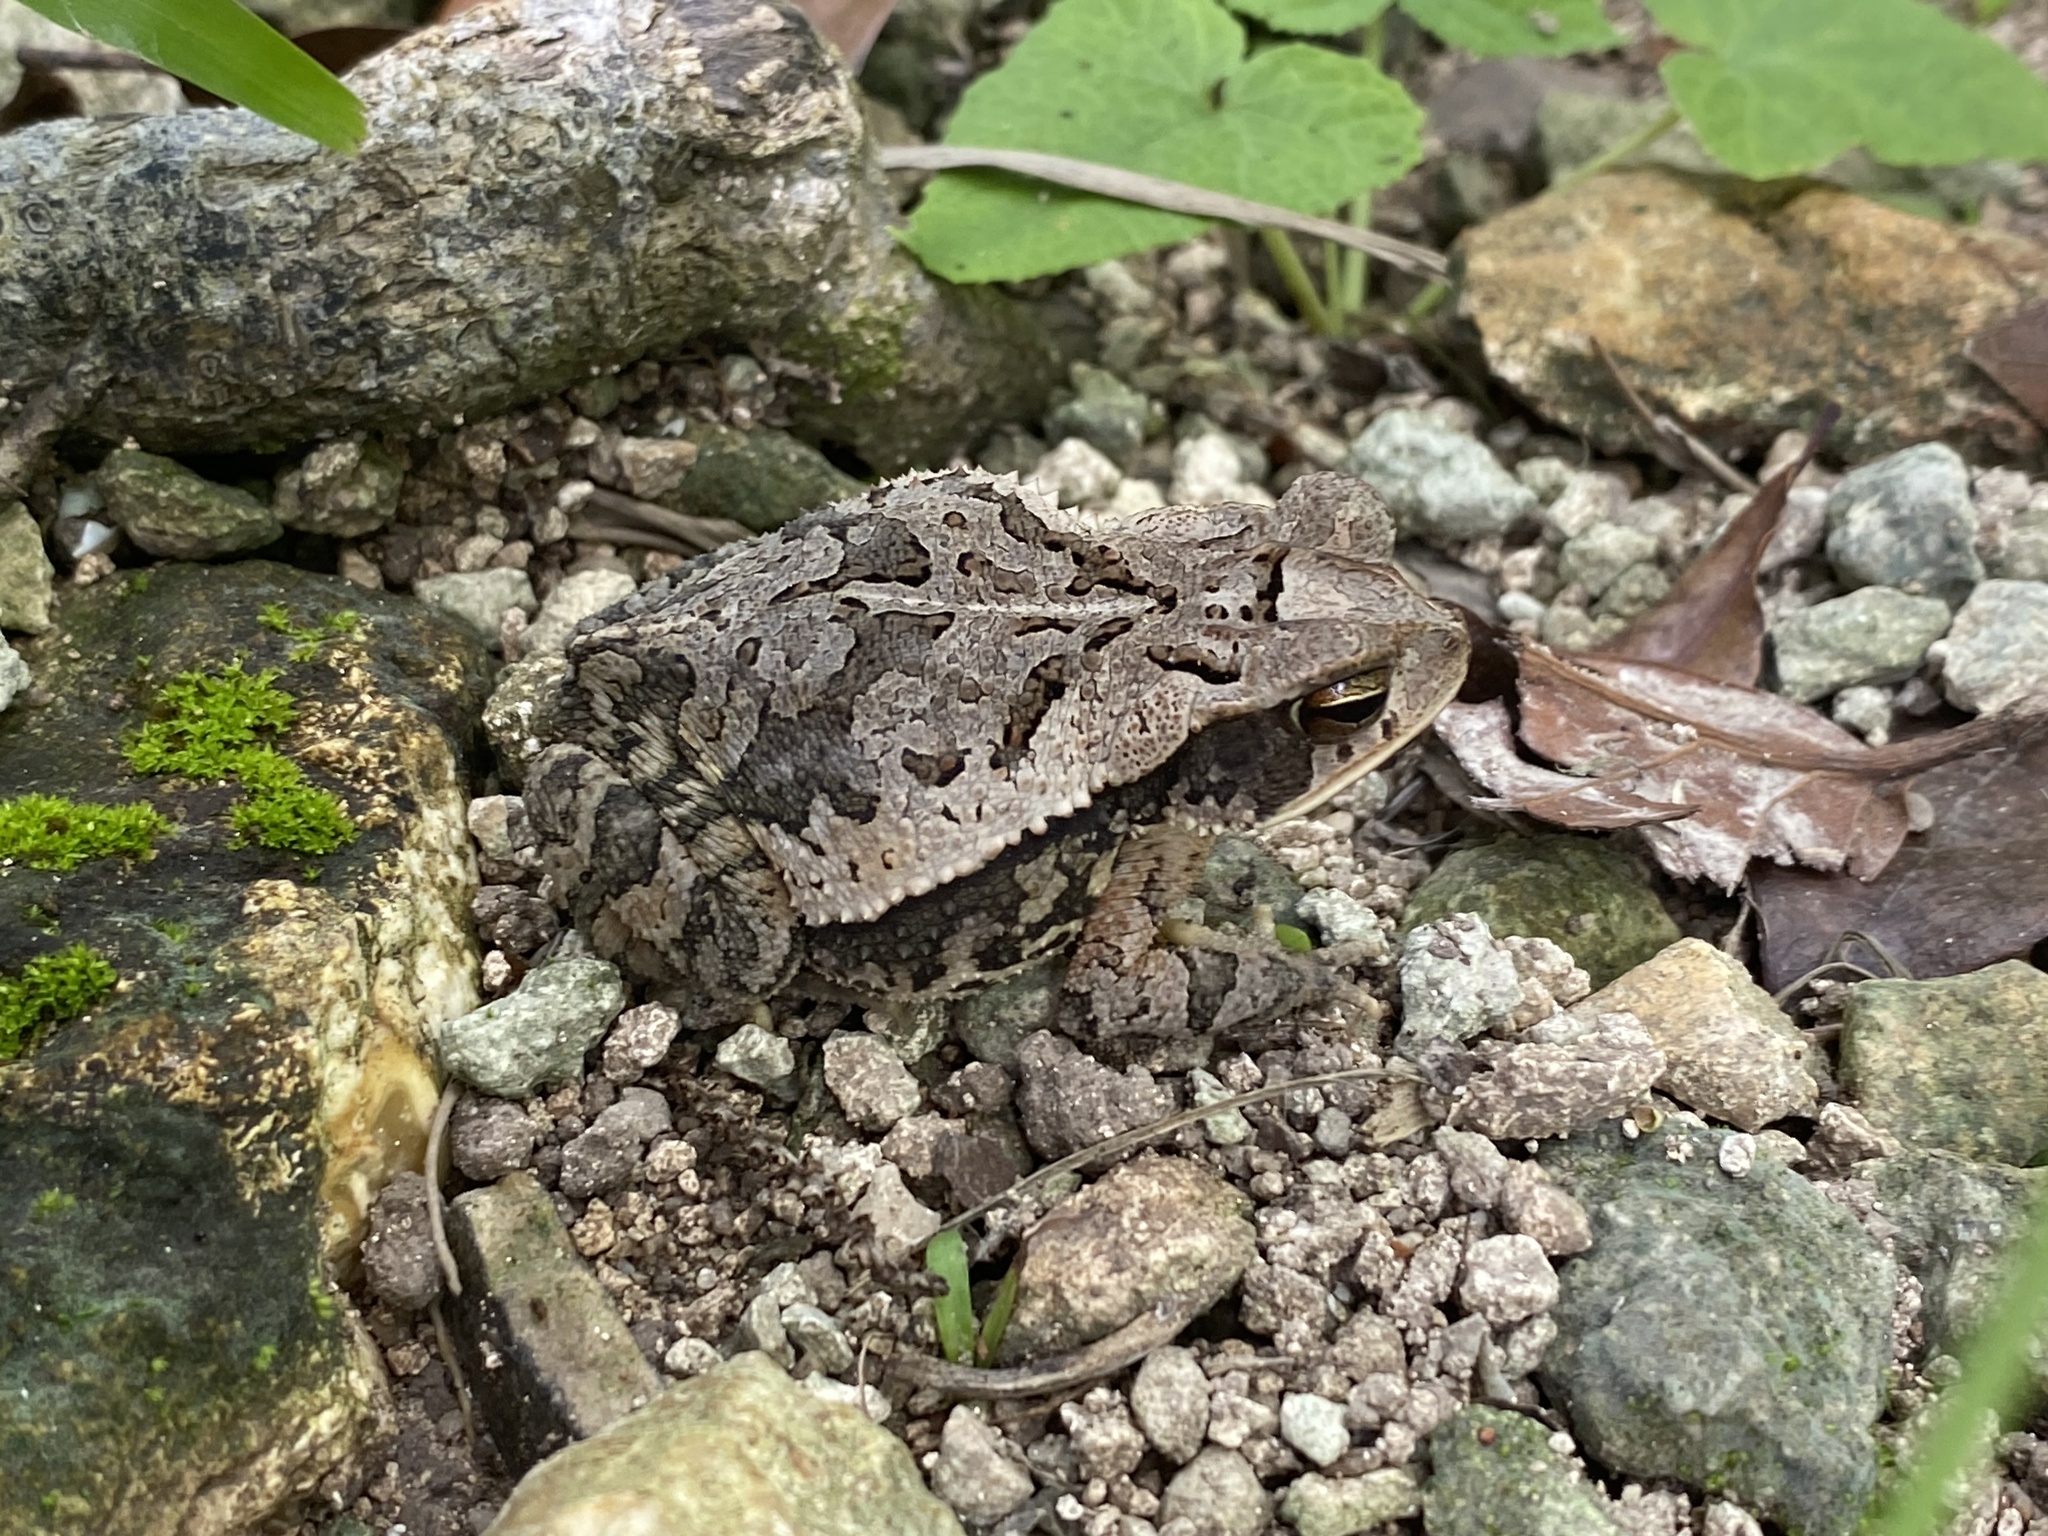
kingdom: Animalia
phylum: Chordata
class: Amphibia
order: Anura
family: Bufonidae
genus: Incilius
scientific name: Incilius valliceps
